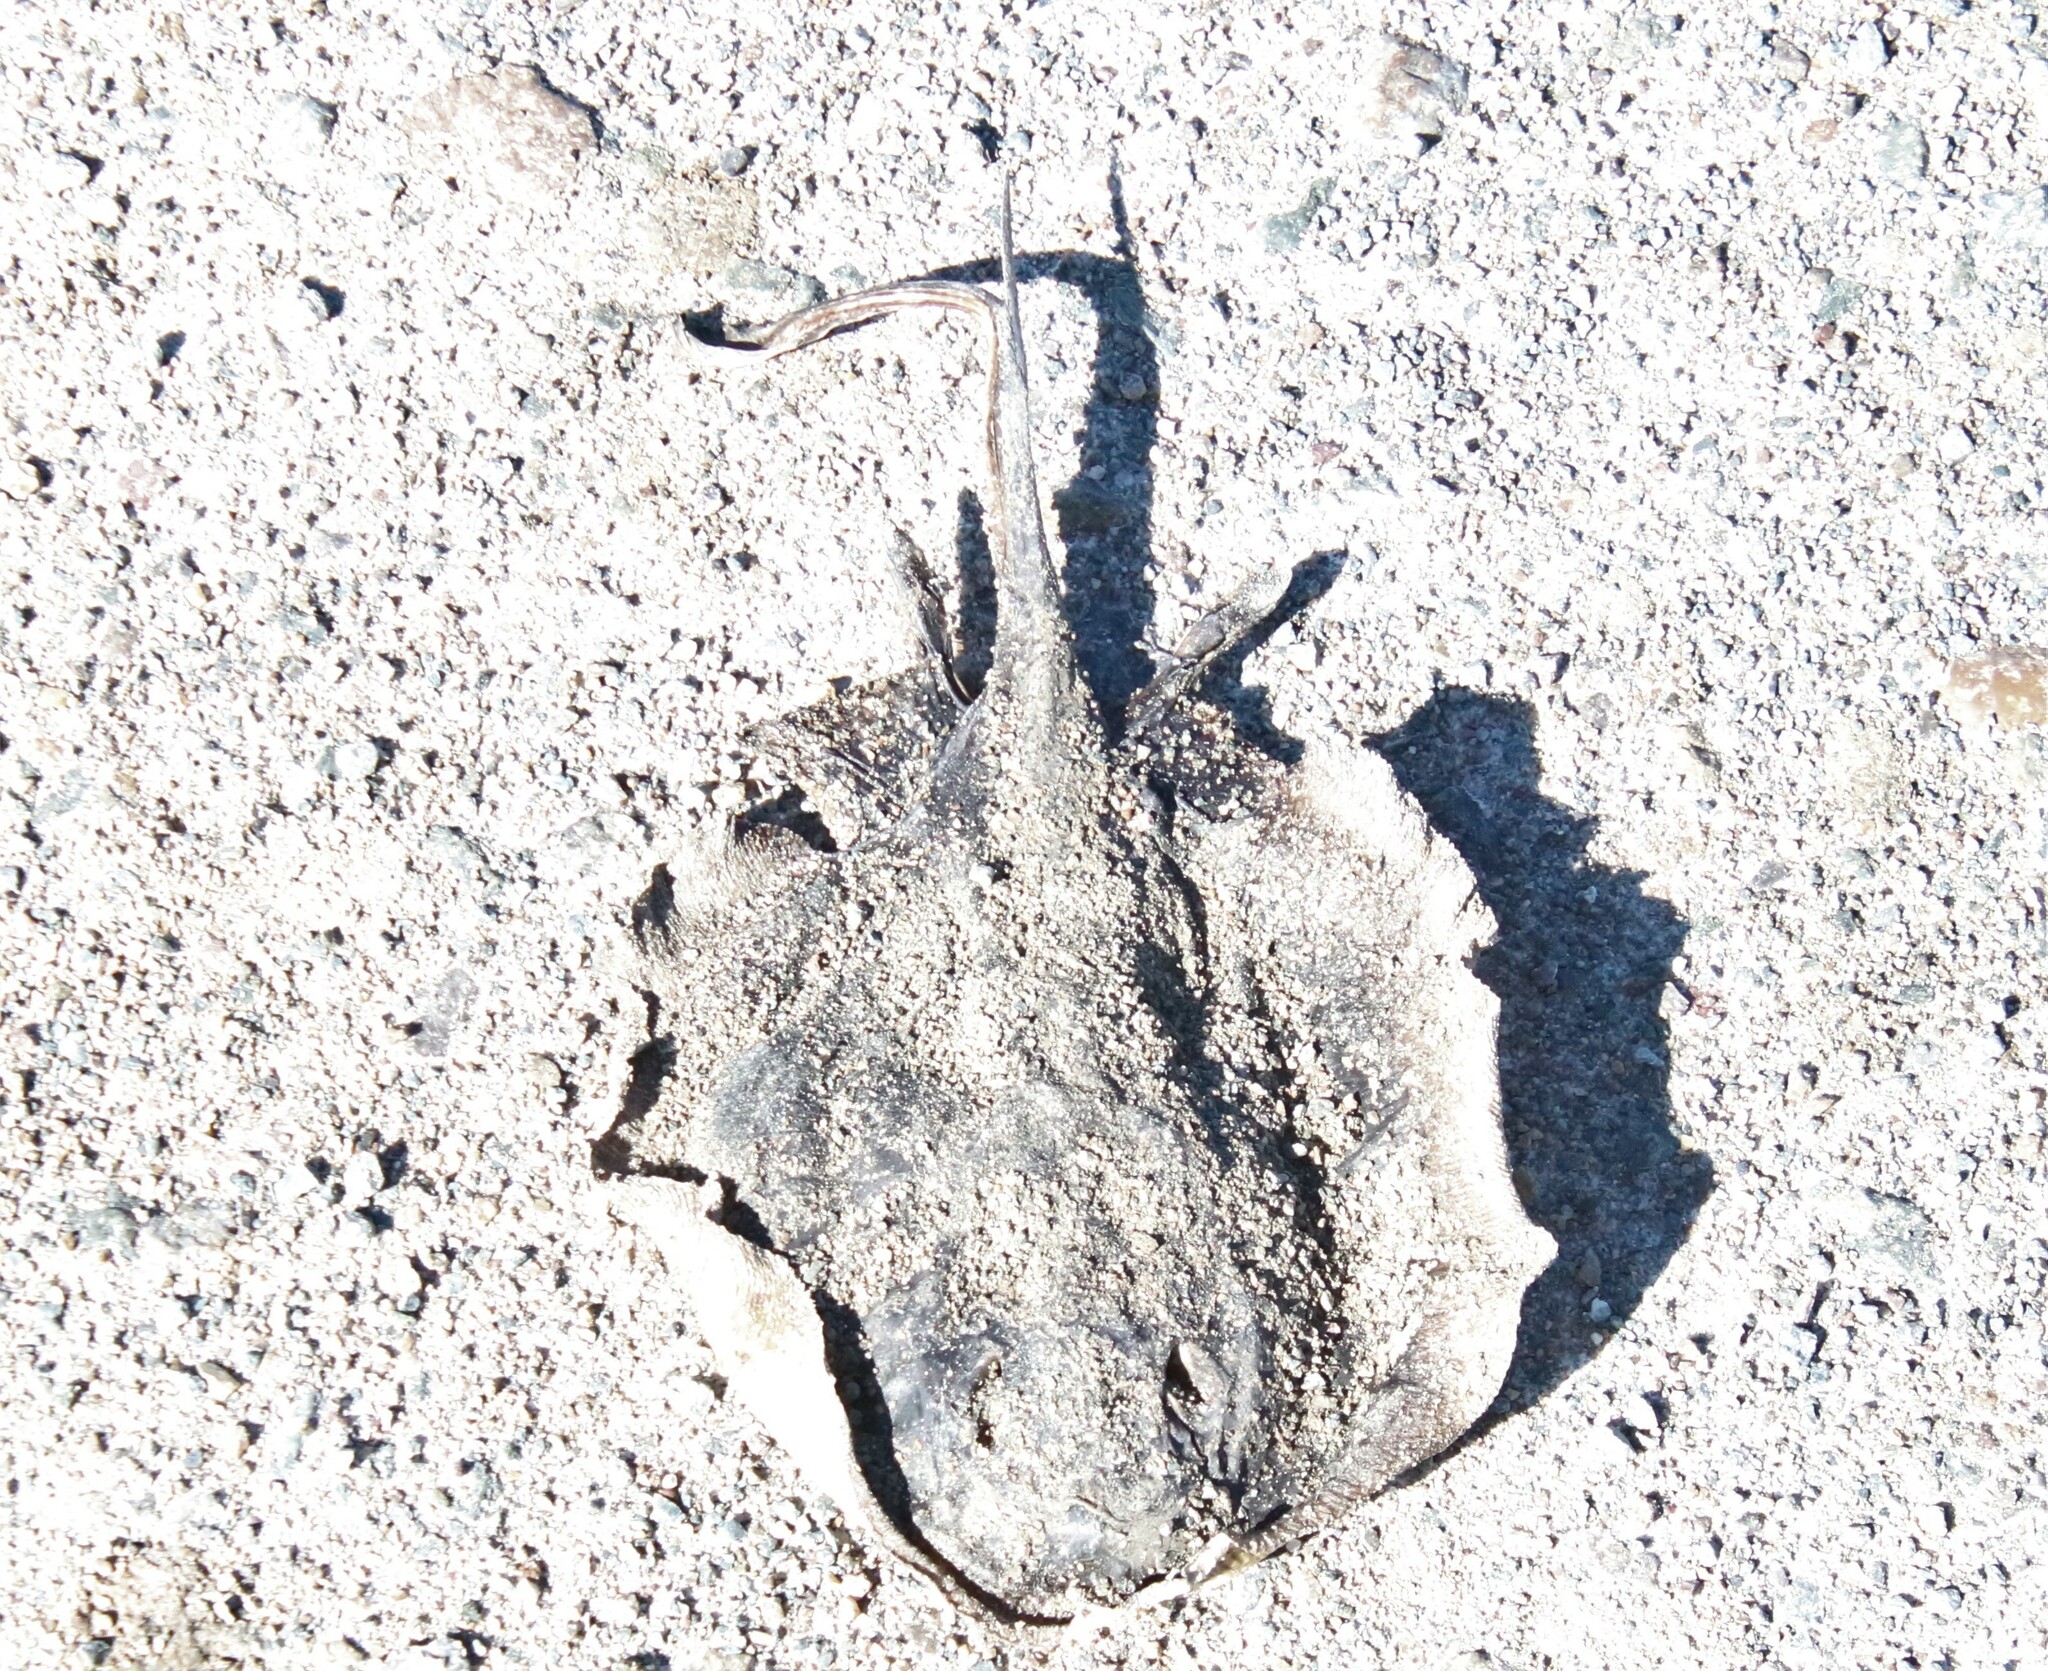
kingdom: Animalia
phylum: Chordata
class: Elasmobranchii
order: Myliobatiformes
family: Urolophidae
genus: Urolophus
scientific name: Urolophus halleri
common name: Round stingray
